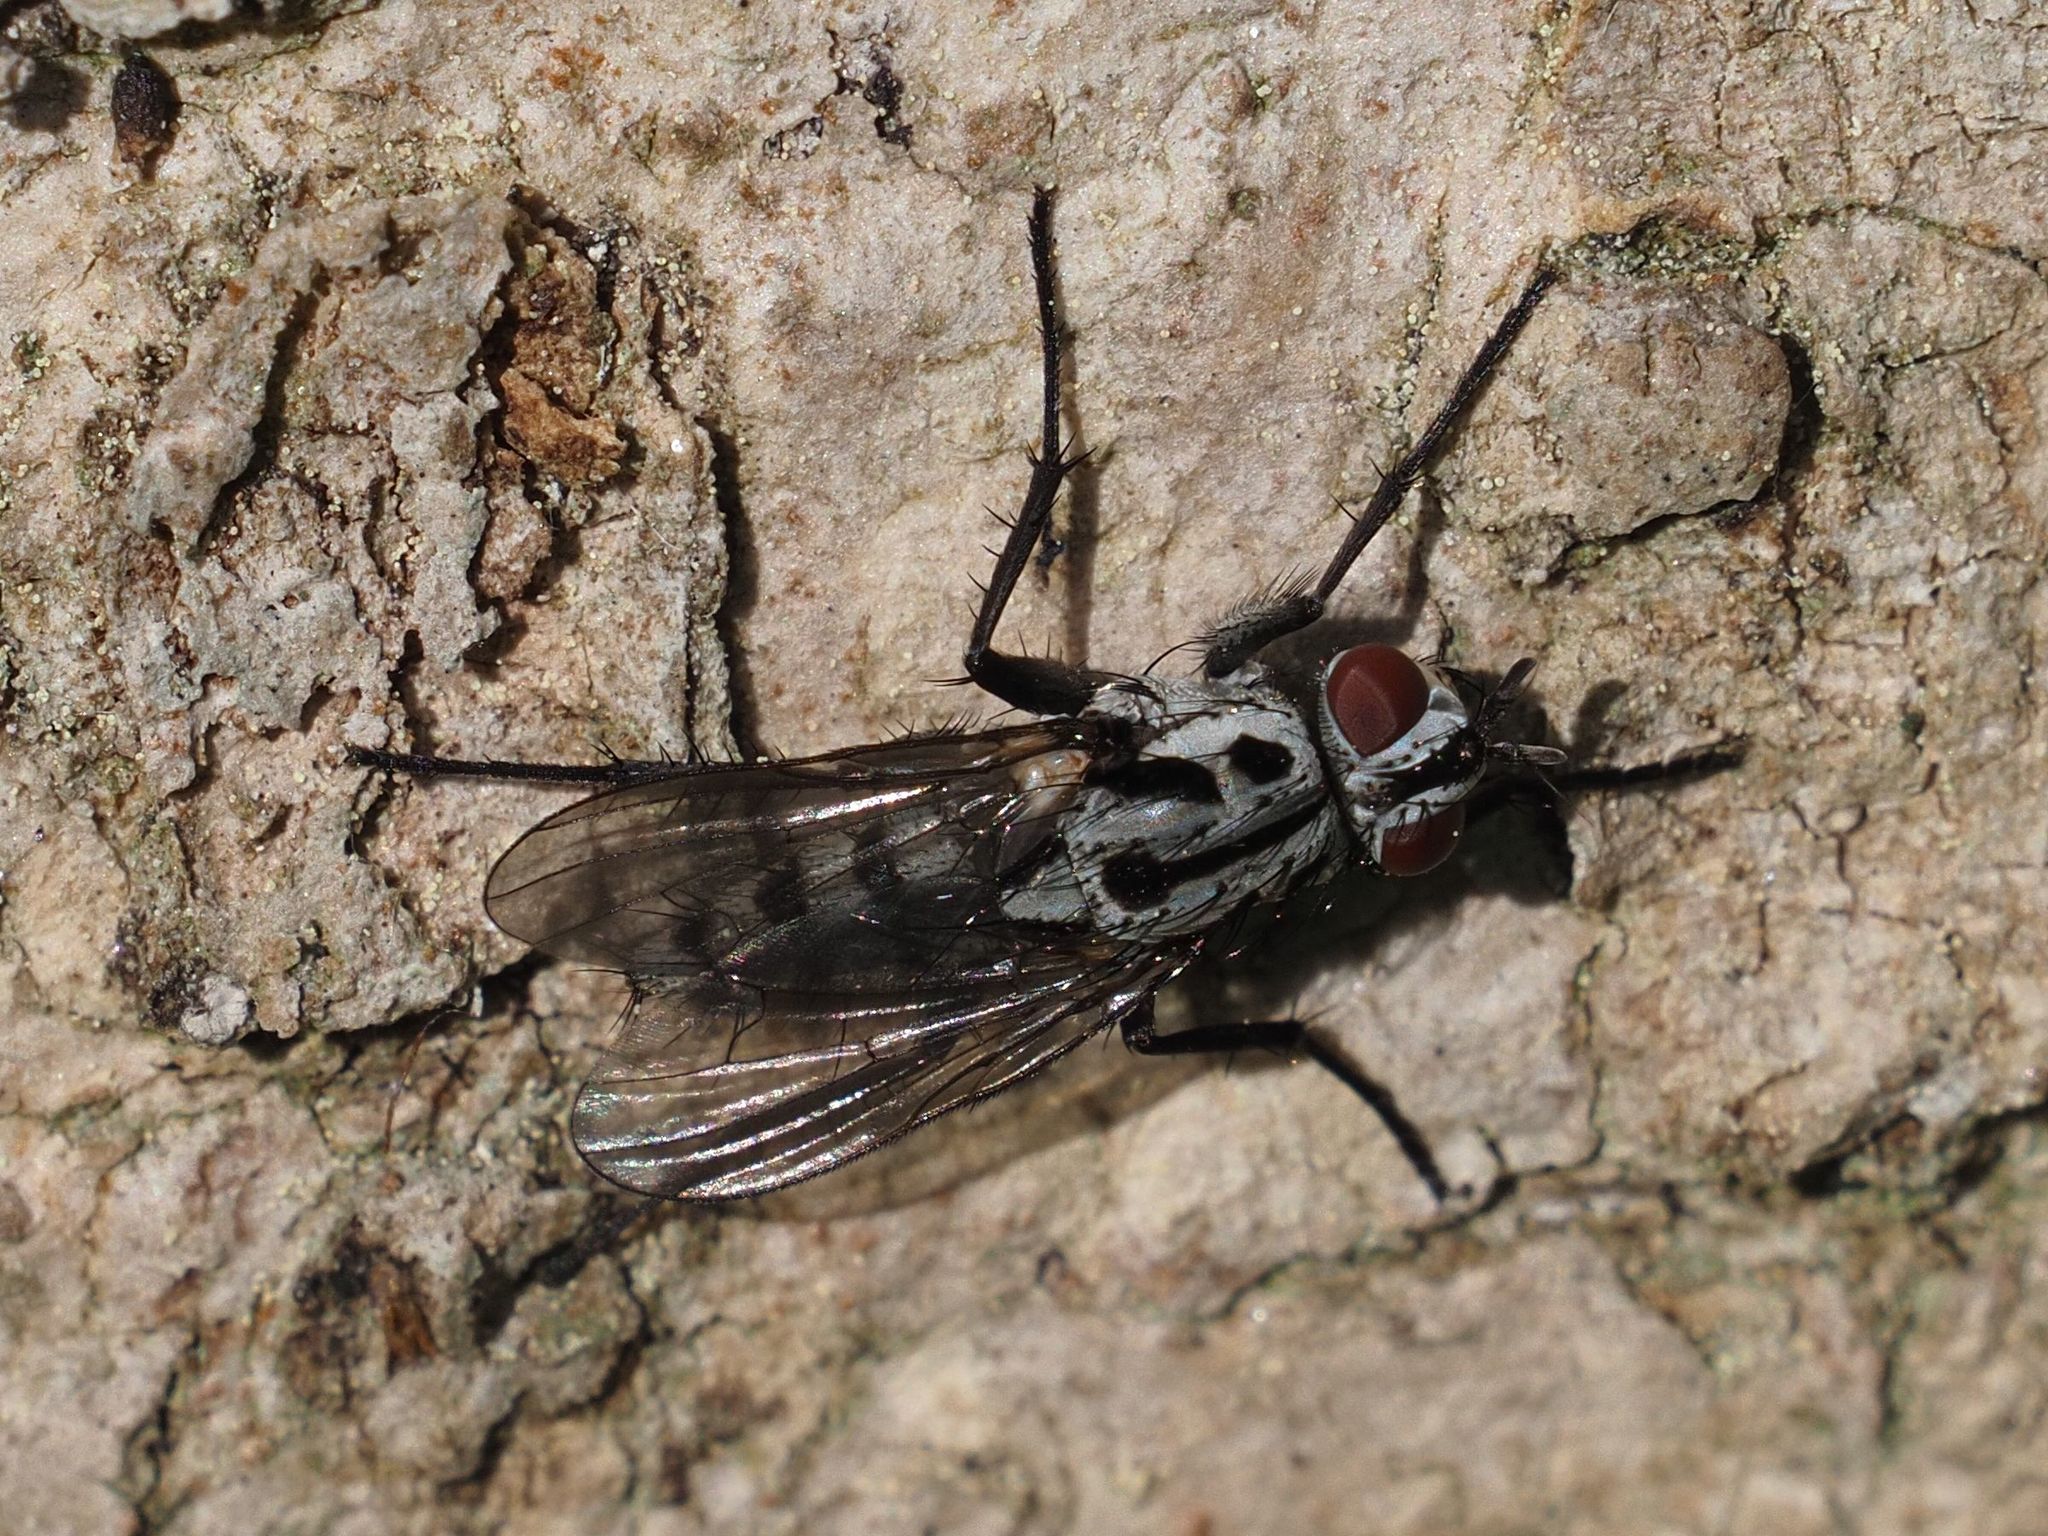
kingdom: Animalia
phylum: Arthropoda
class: Insecta
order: Diptera
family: Anthomyiidae
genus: Eustalomyia
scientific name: Eustalomyia hilaris
